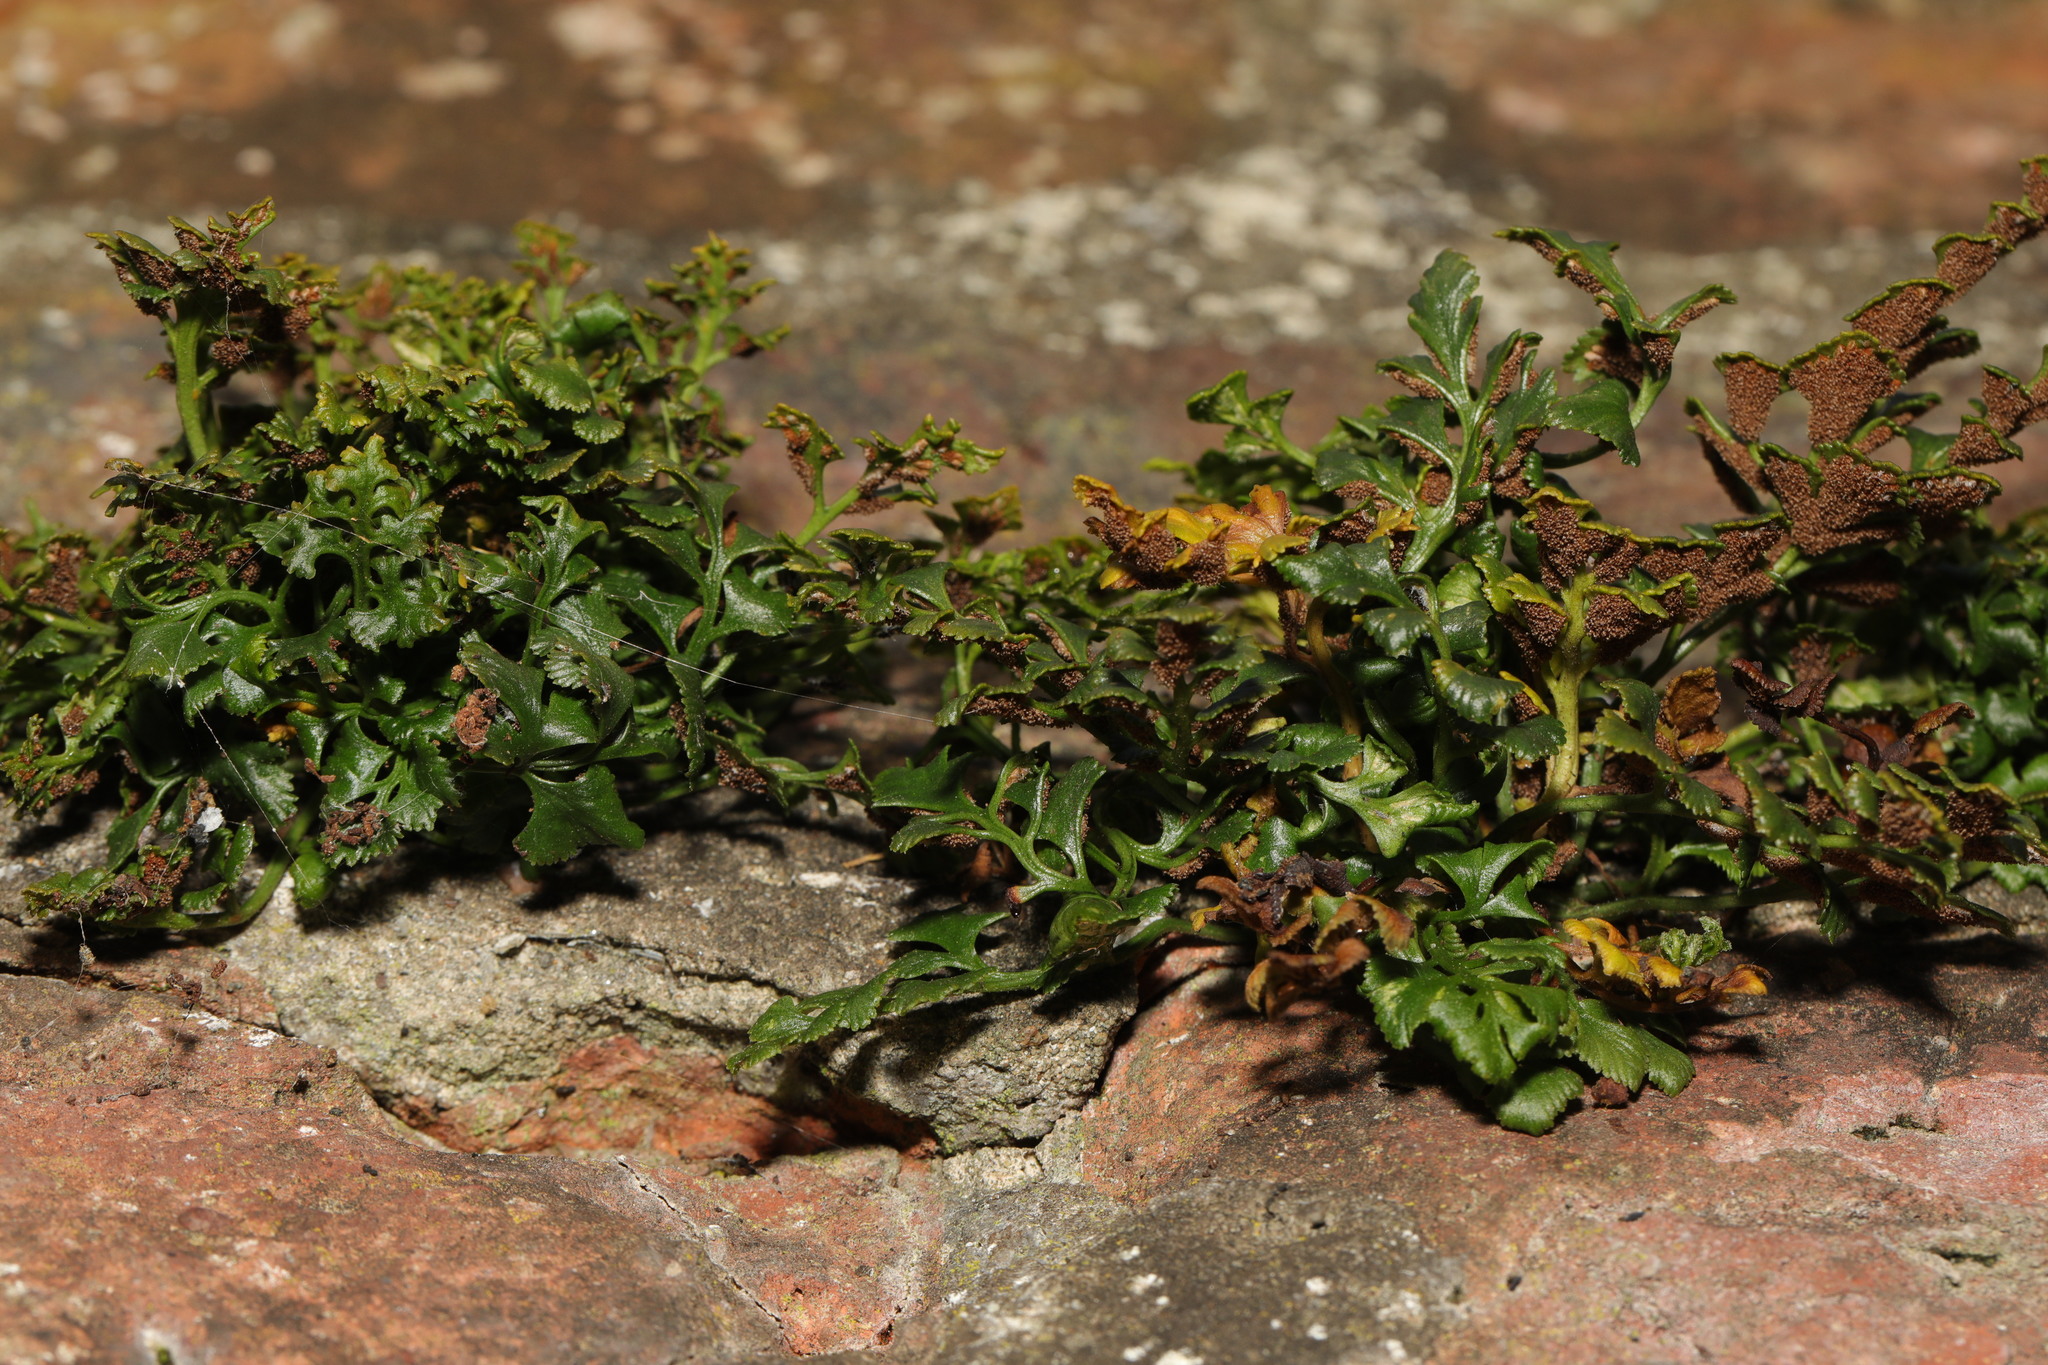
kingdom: Plantae
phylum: Tracheophyta
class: Polypodiopsida
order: Polypodiales
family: Aspleniaceae
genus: Asplenium
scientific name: Asplenium ruta-muraria
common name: Wall-rue
